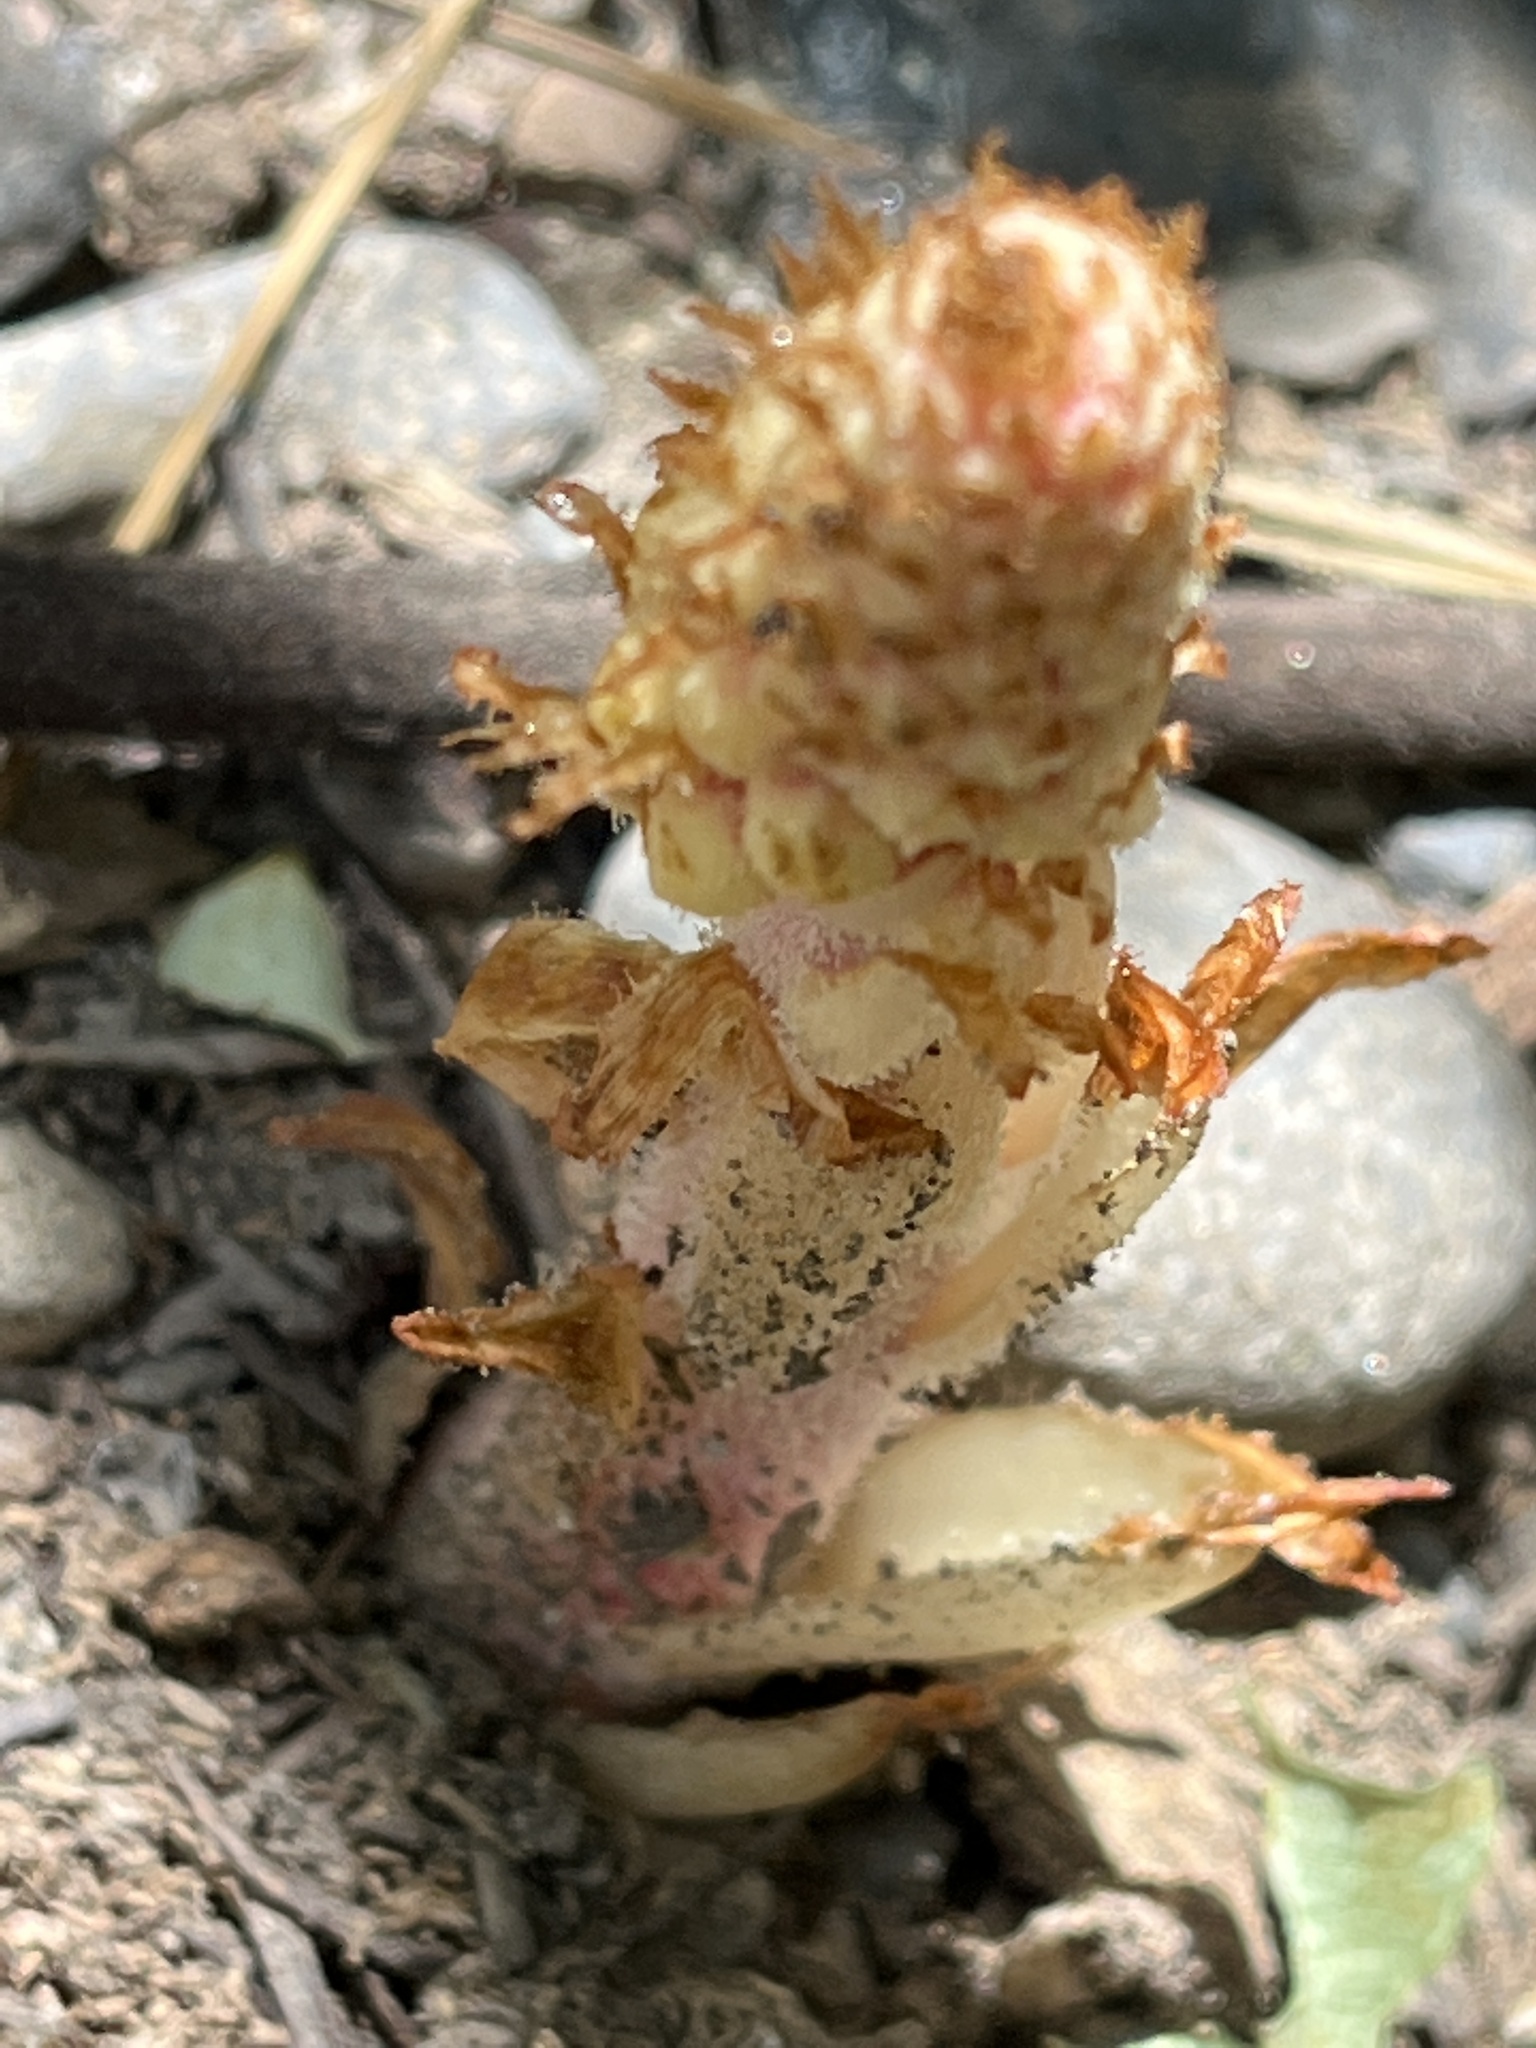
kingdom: Plantae
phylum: Tracheophyta
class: Magnoliopsida
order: Ericales
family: Ericaceae
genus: Pterospora
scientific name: Pterospora andromedea
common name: Giant bird's-nest
